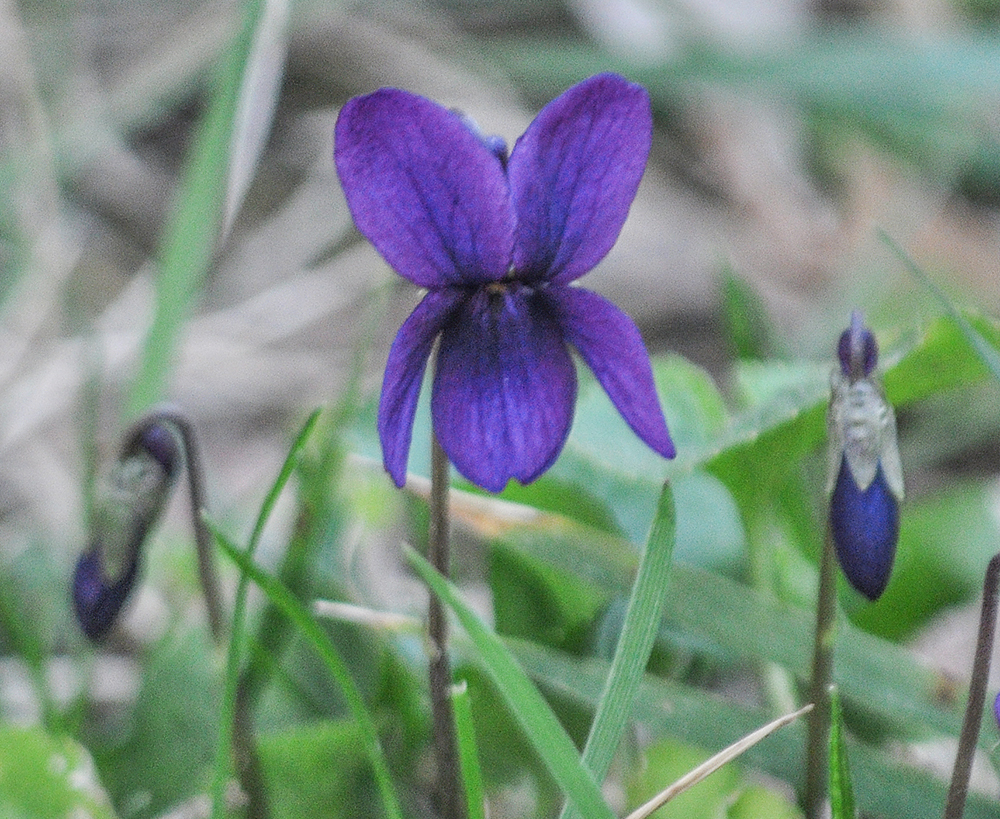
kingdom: Plantae
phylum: Tracheophyta
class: Magnoliopsida
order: Malpighiales
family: Violaceae
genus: Viola
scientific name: Viola odorata
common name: Sweet violet
